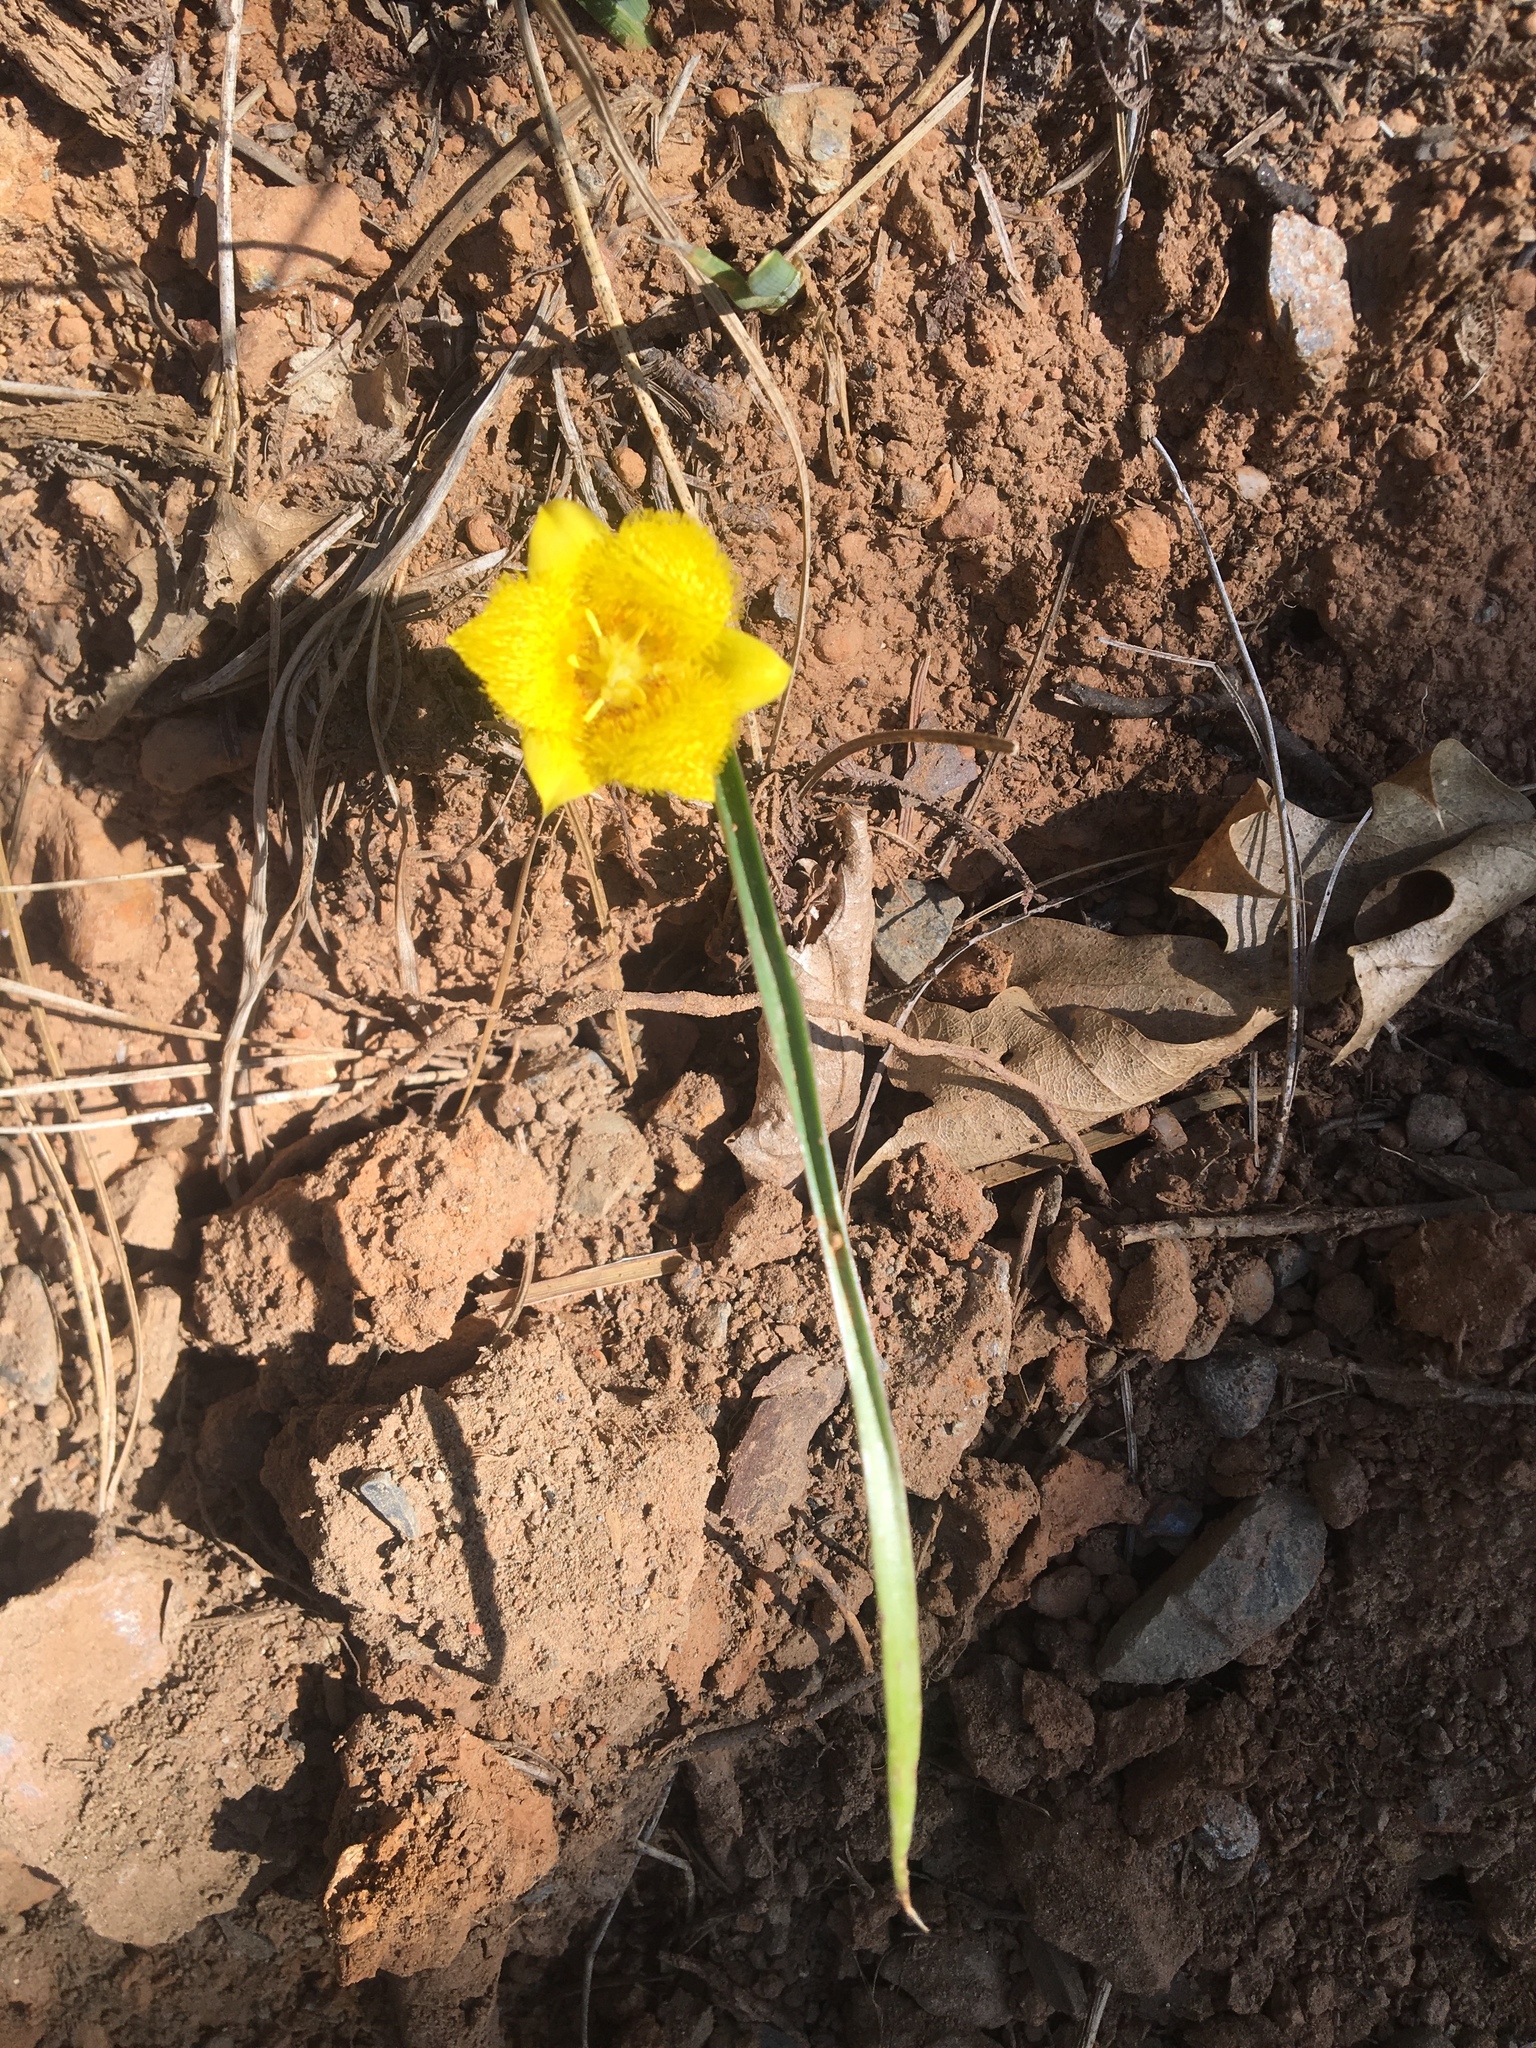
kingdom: Plantae
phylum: Tracheophyta
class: Liliopsida
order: Liliales
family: Liliaceae
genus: Calochortus
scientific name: Calochortus monophyllus
